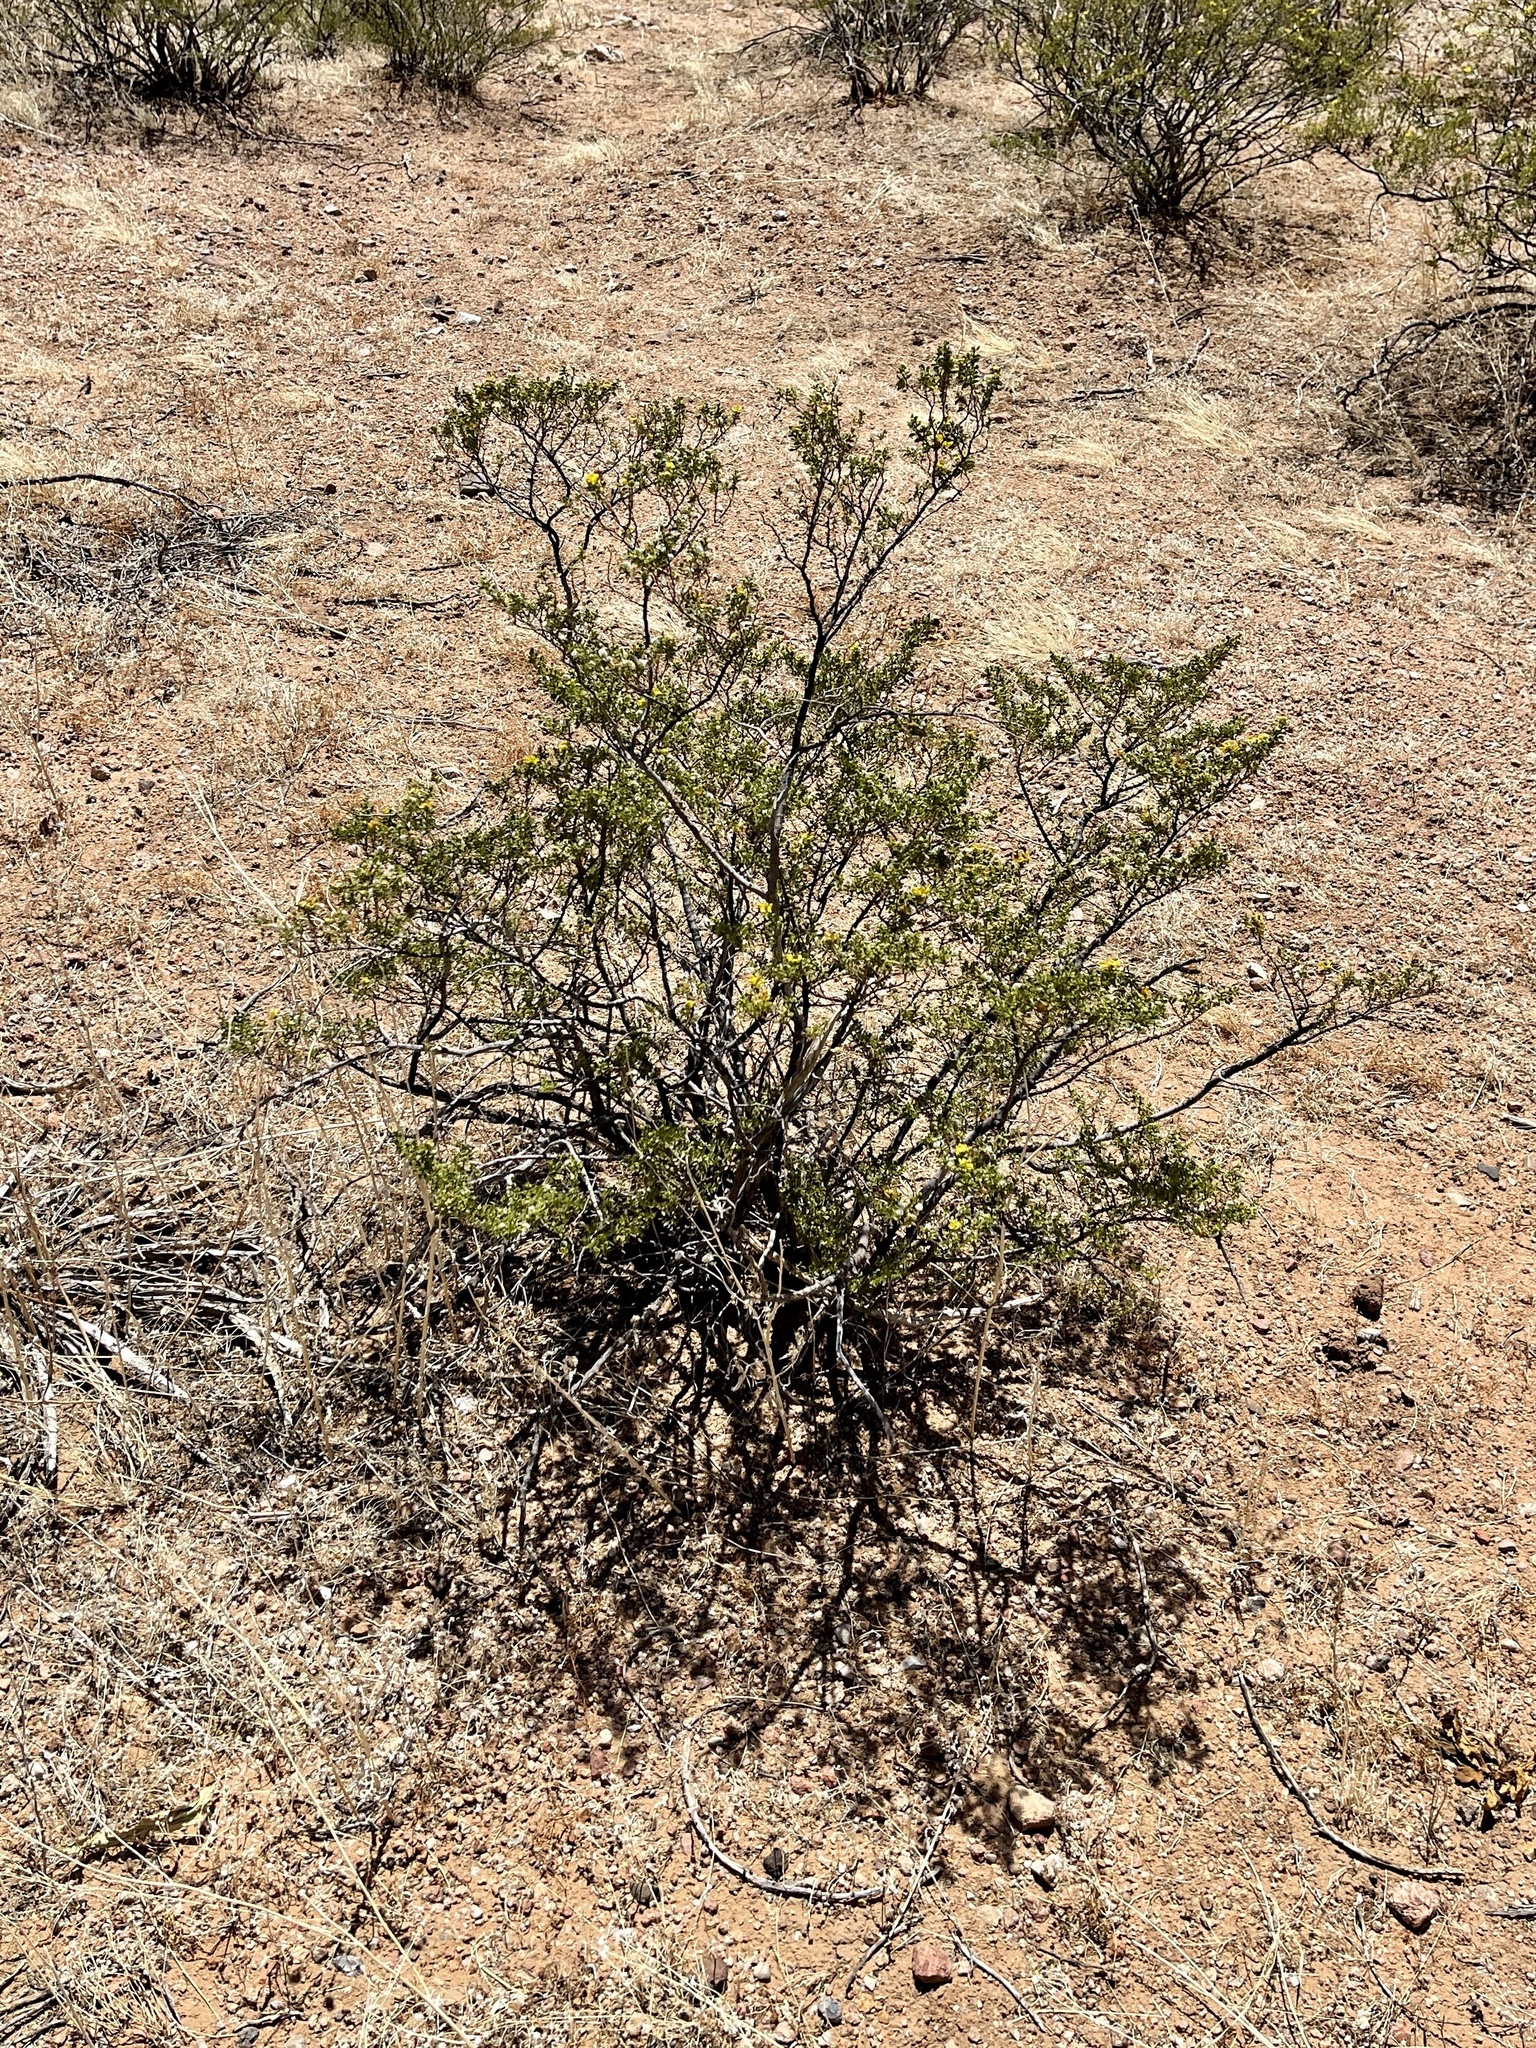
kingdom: Plantae
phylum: Tracheophyta
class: Magnoliopsida
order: Zygophyllales
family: Zygophyllaceae
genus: Larrea
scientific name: Larrea tridentata
